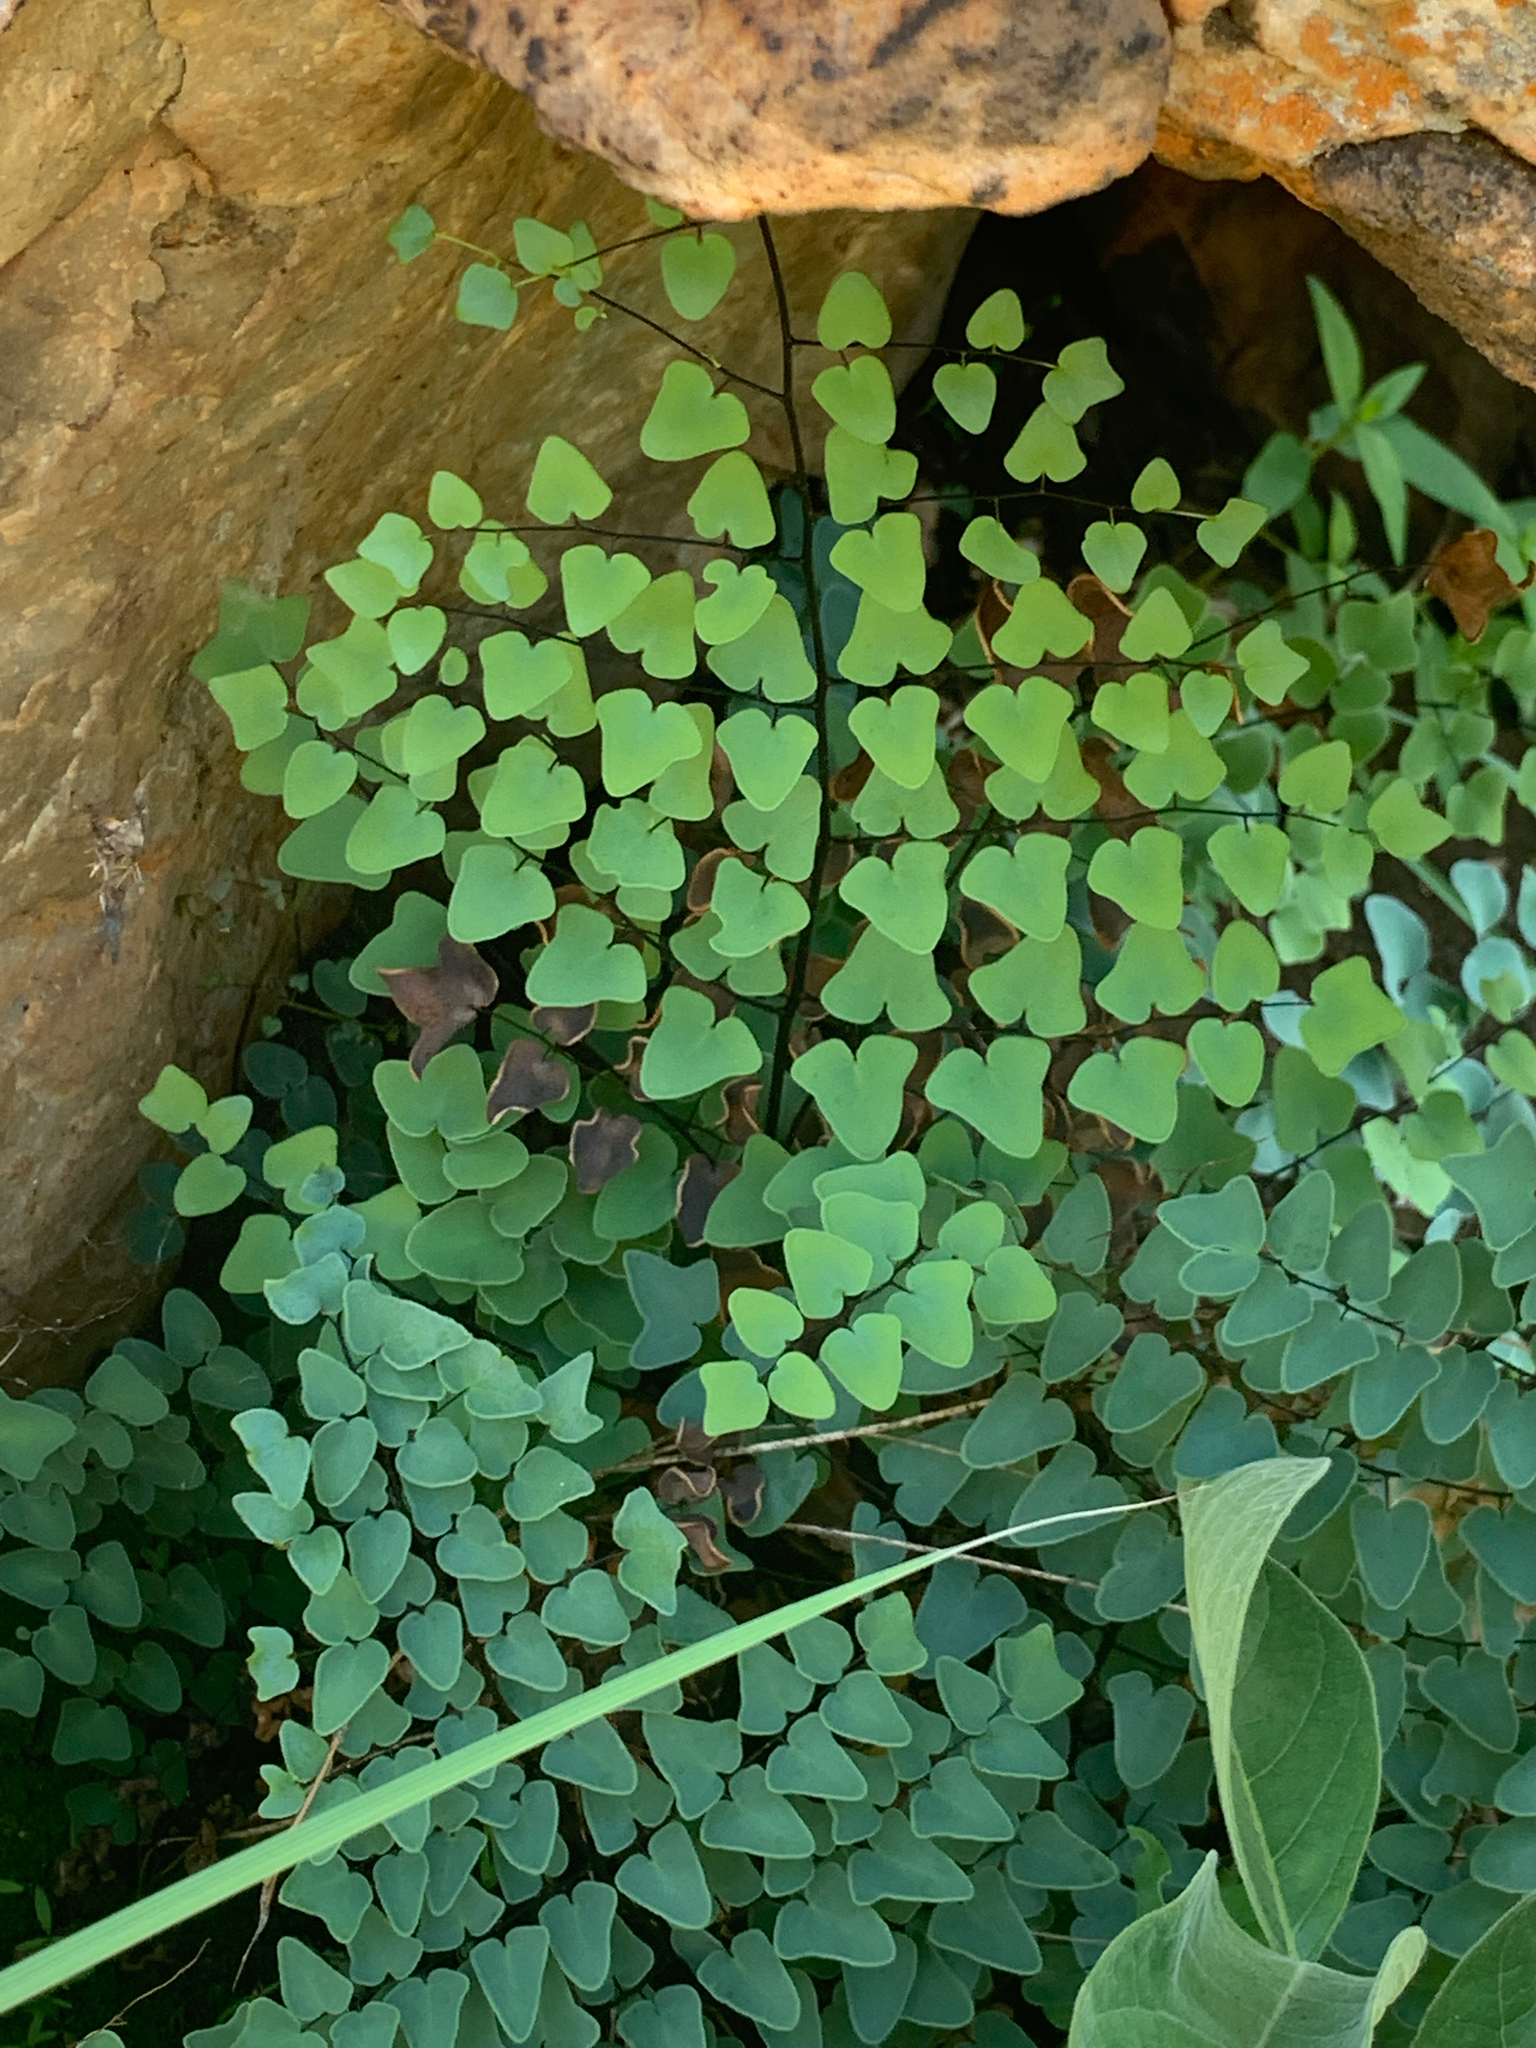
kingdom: Plantae
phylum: Tracheophyta
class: Polypodiopsida
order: Polypodiales
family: Pteridaceae
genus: Pellaea
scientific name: Pellaea calomelanos
